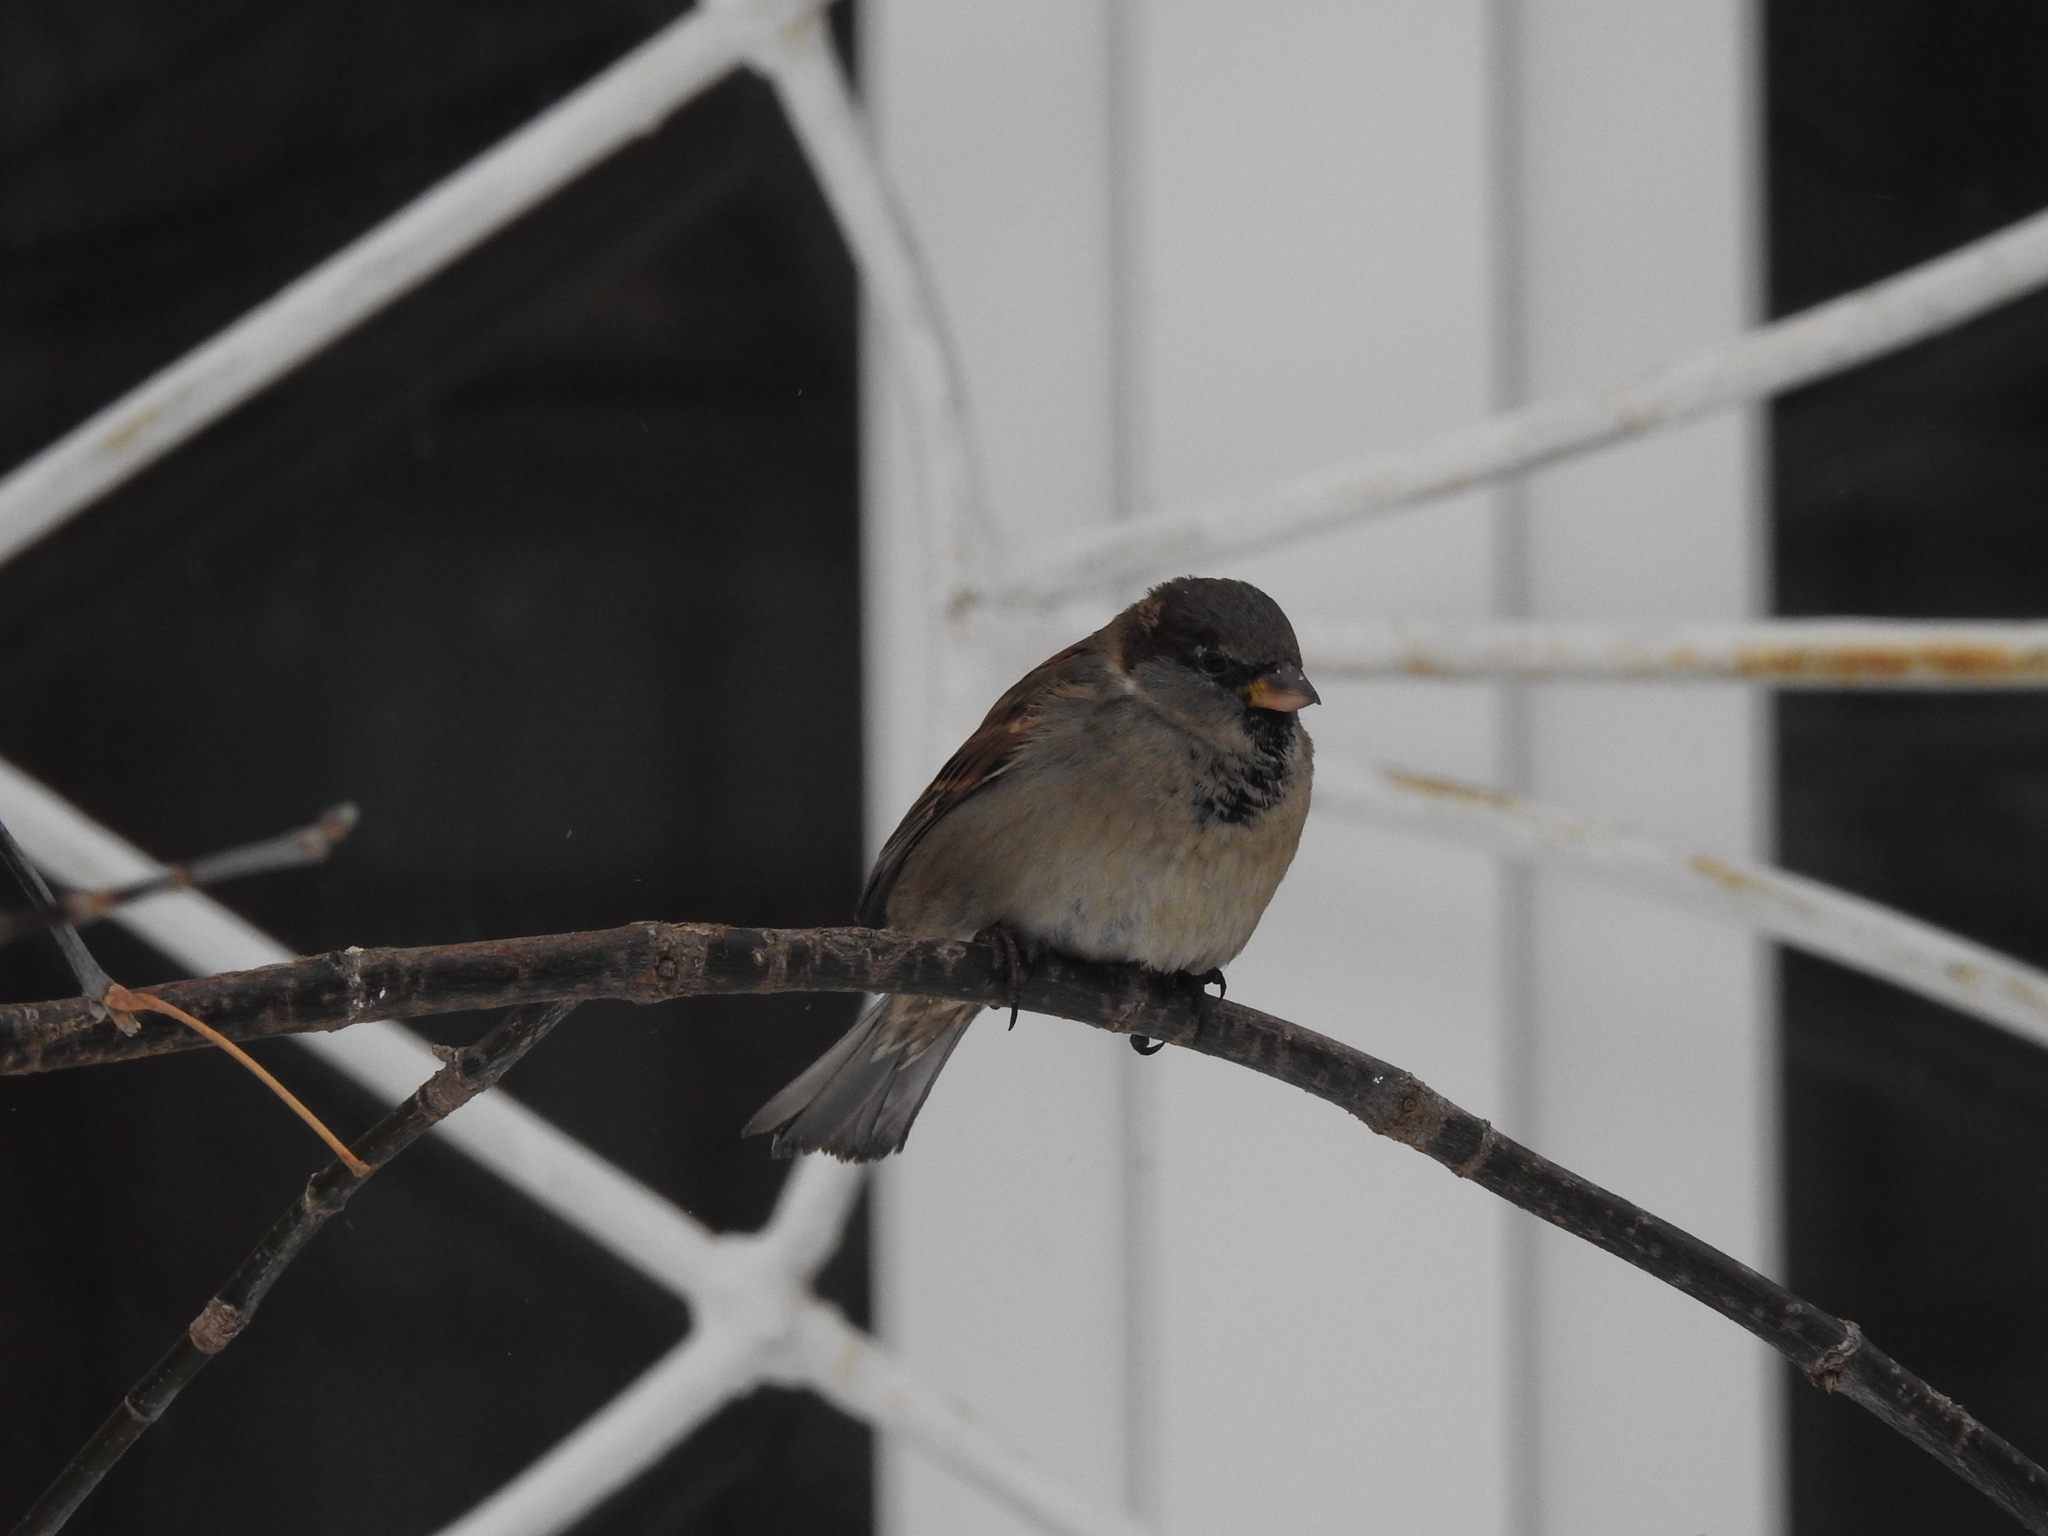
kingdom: Animalia
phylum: Chordata
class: Aves
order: Passeriformes
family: Passeridae
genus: Passer
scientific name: Passer domesticus
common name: House sparrow
